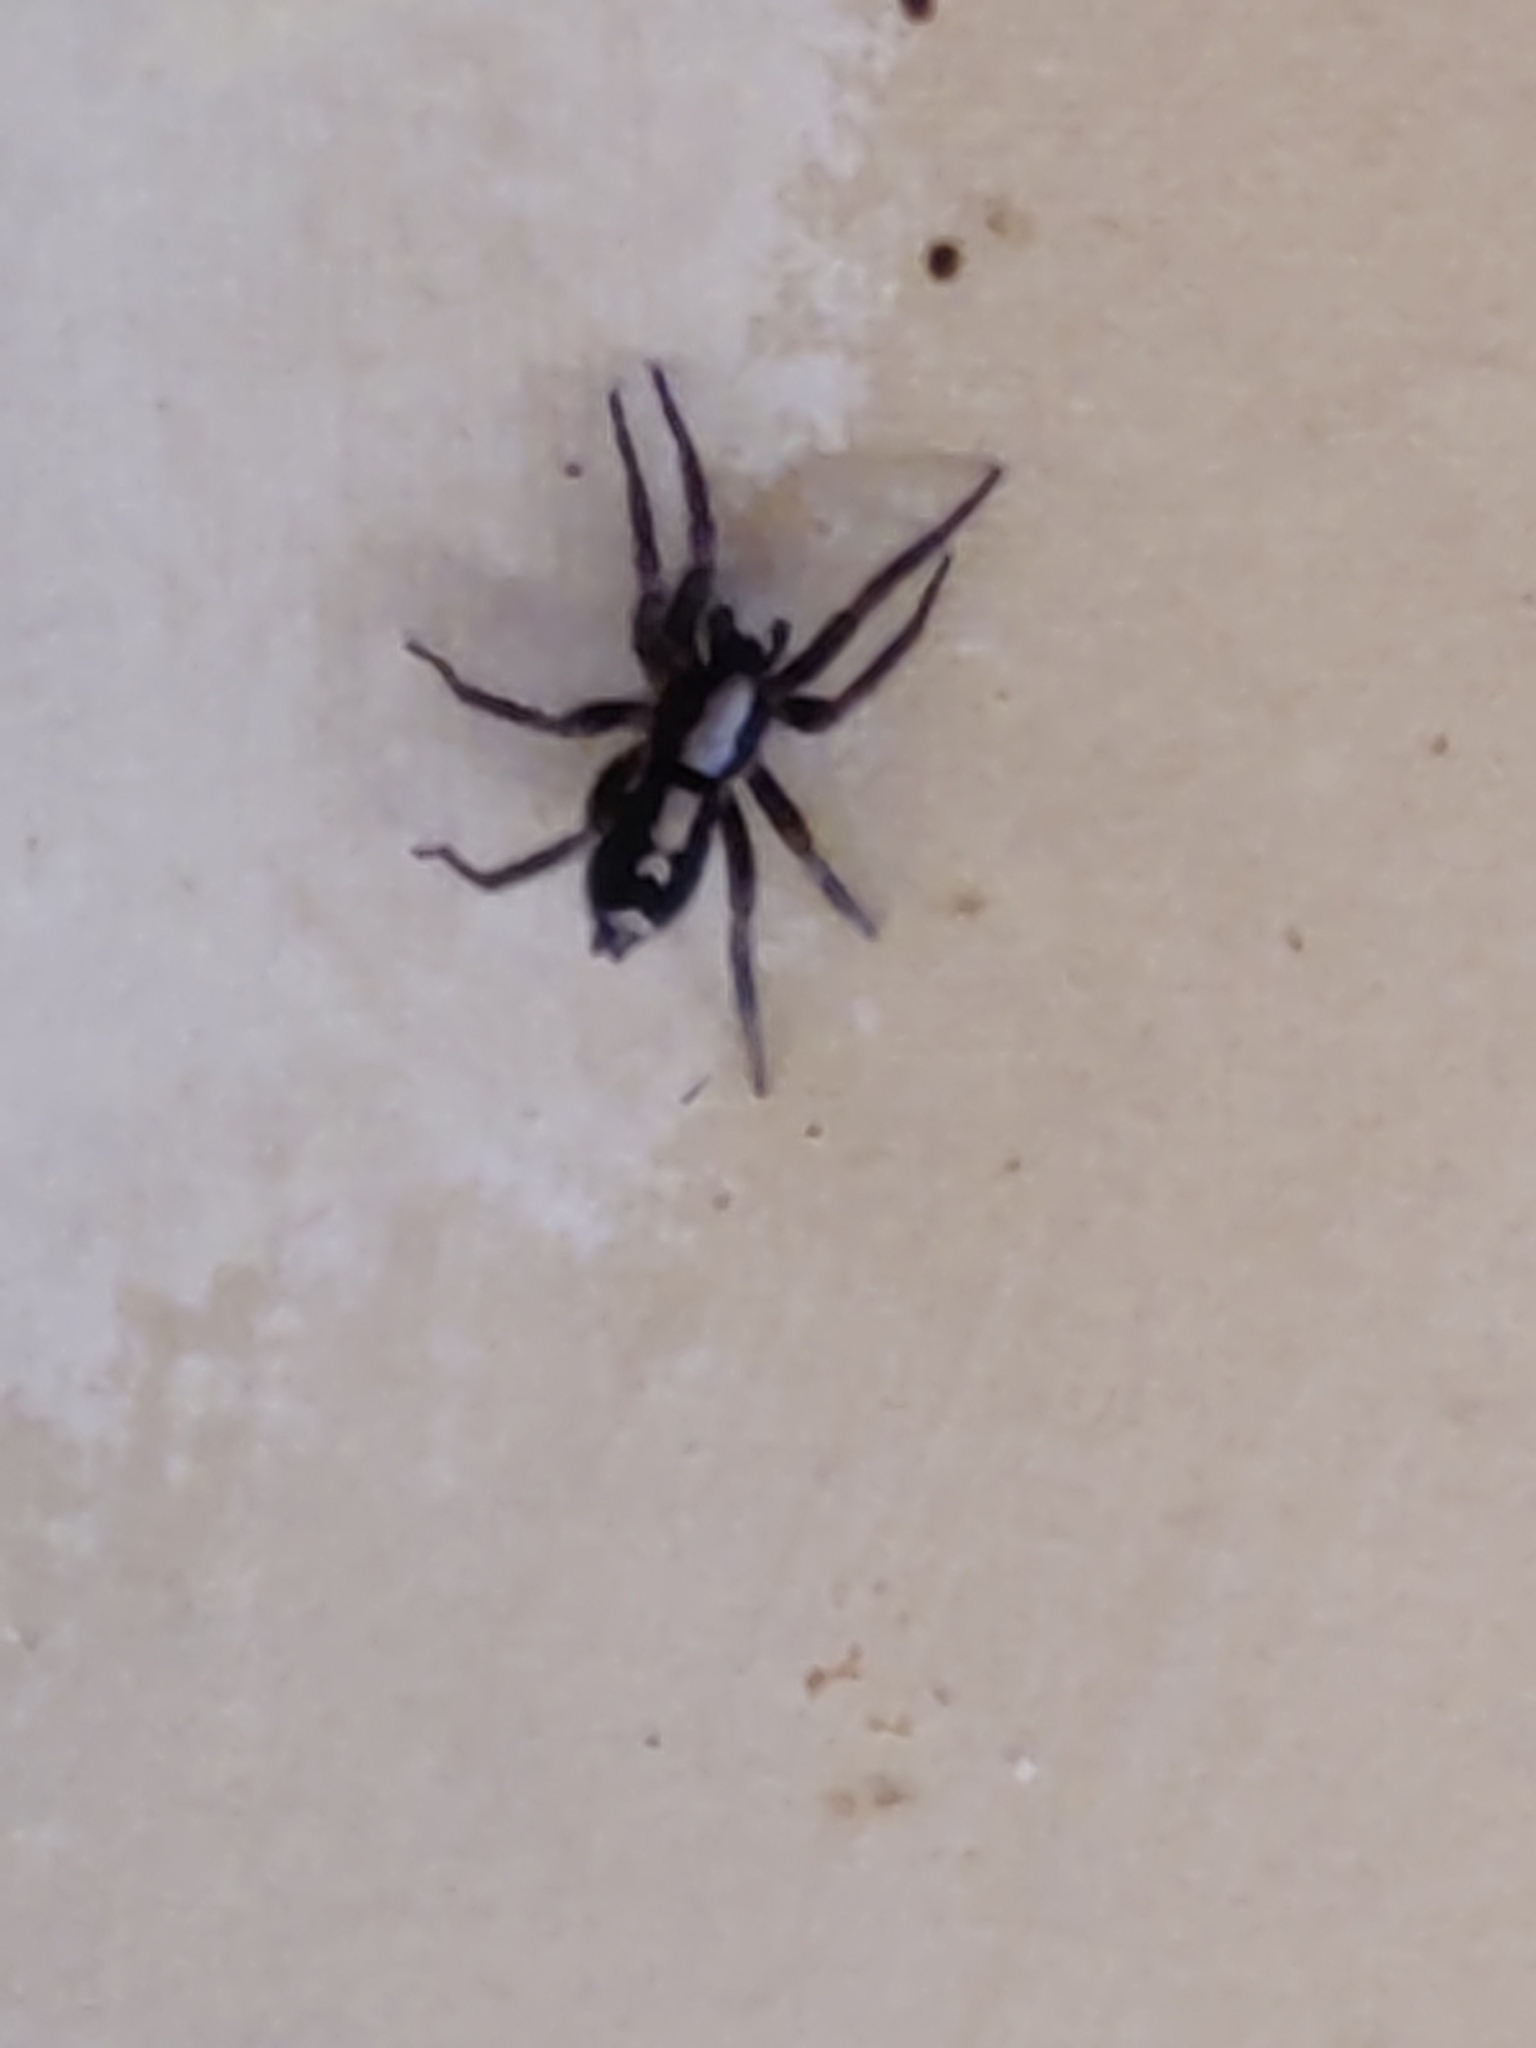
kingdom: Animalia
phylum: Arthropoda
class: Arachnida
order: Araneae
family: Gnaphosidae
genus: Herpyllus
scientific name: Herpyllus ecclesiasticus
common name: Eastern parson spider
